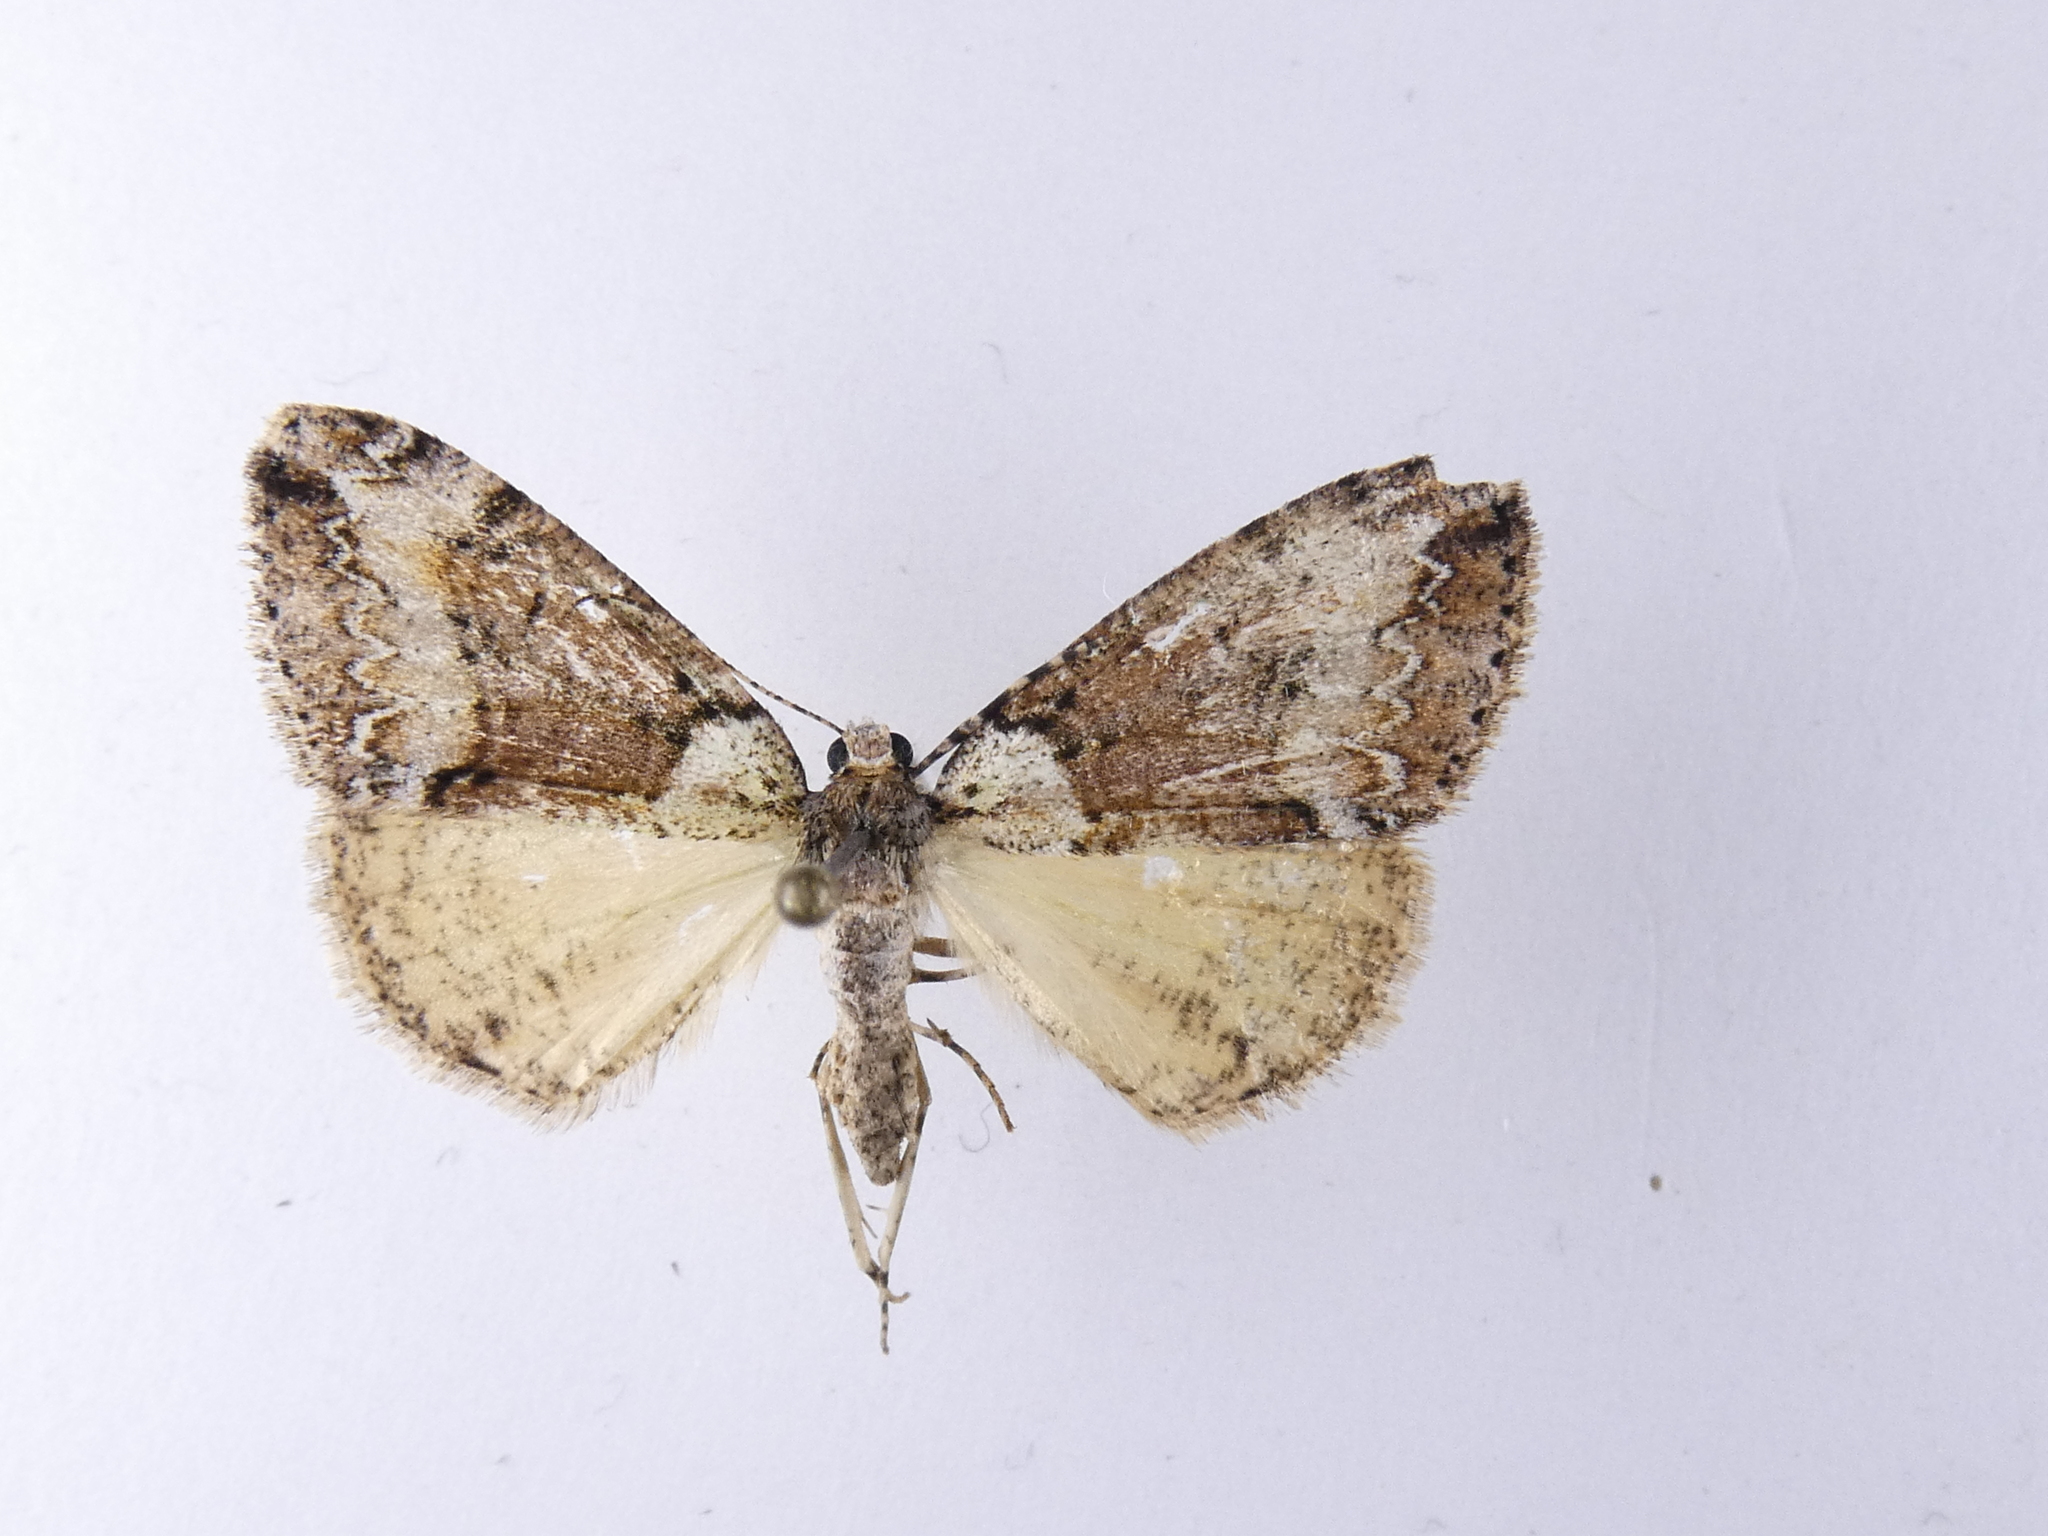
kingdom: Animalia
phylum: Arthropoda
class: Insecta
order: Lepidoptera
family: Geometridae
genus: Pseudocoremia
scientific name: Pseudocoremia suavis
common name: Common forest looper
